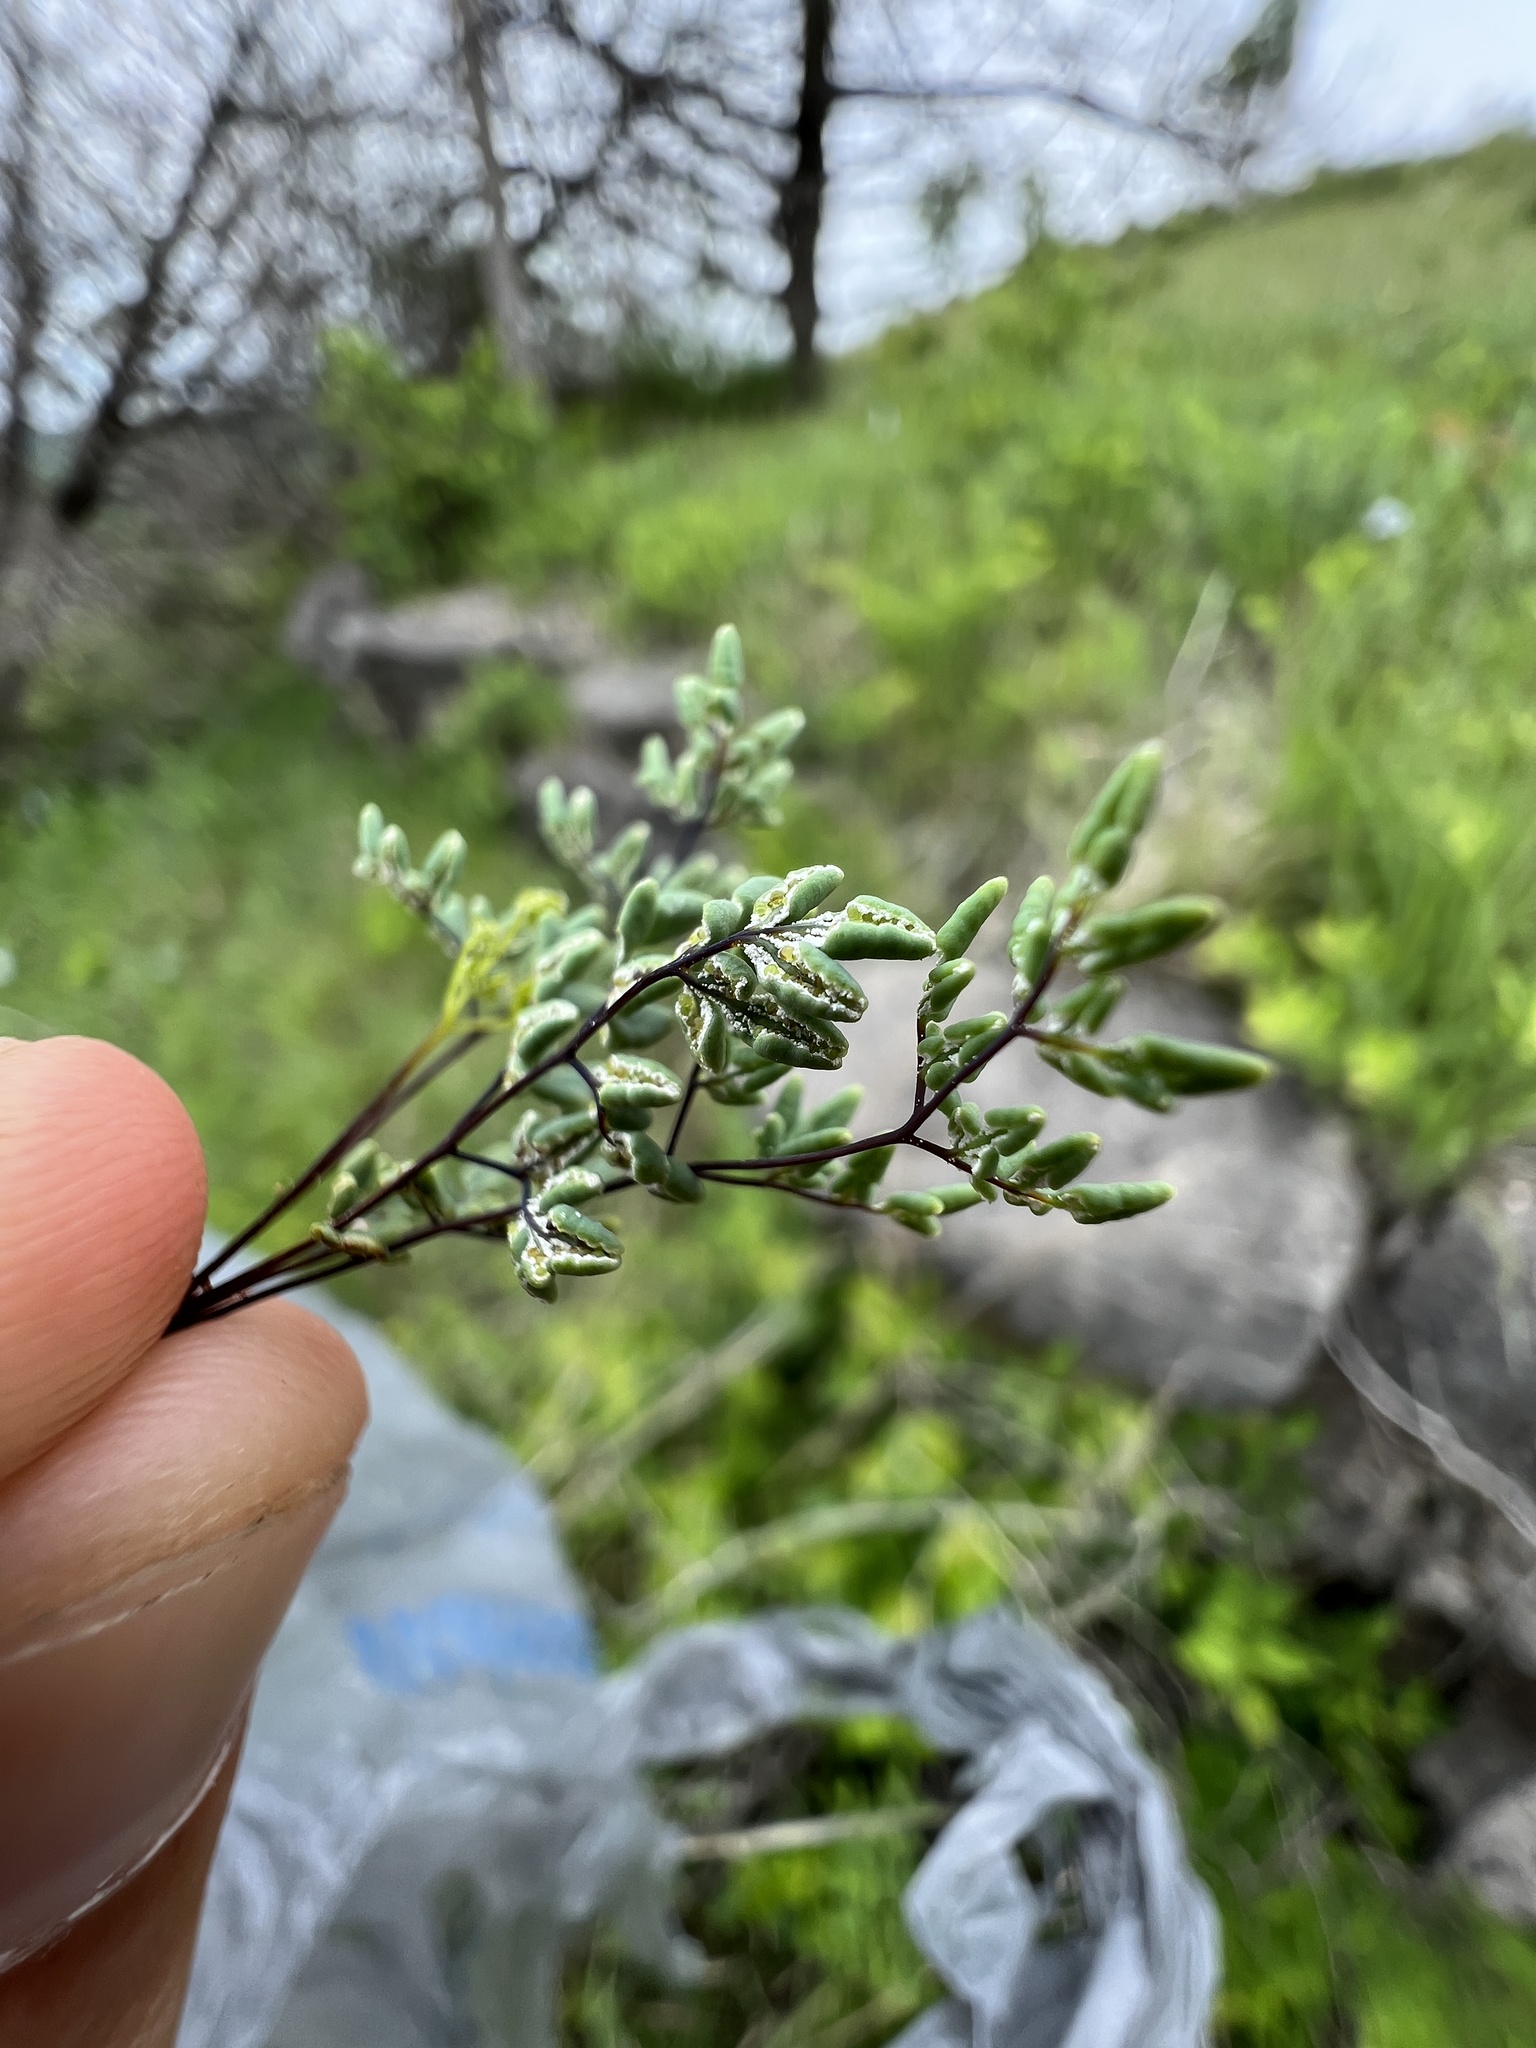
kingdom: Plantae
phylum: Tracheophyta
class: Polypodiopsida
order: Polypodiales
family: Pteridaceae
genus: Argyrochosma
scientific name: Argyrochosma dealbata
